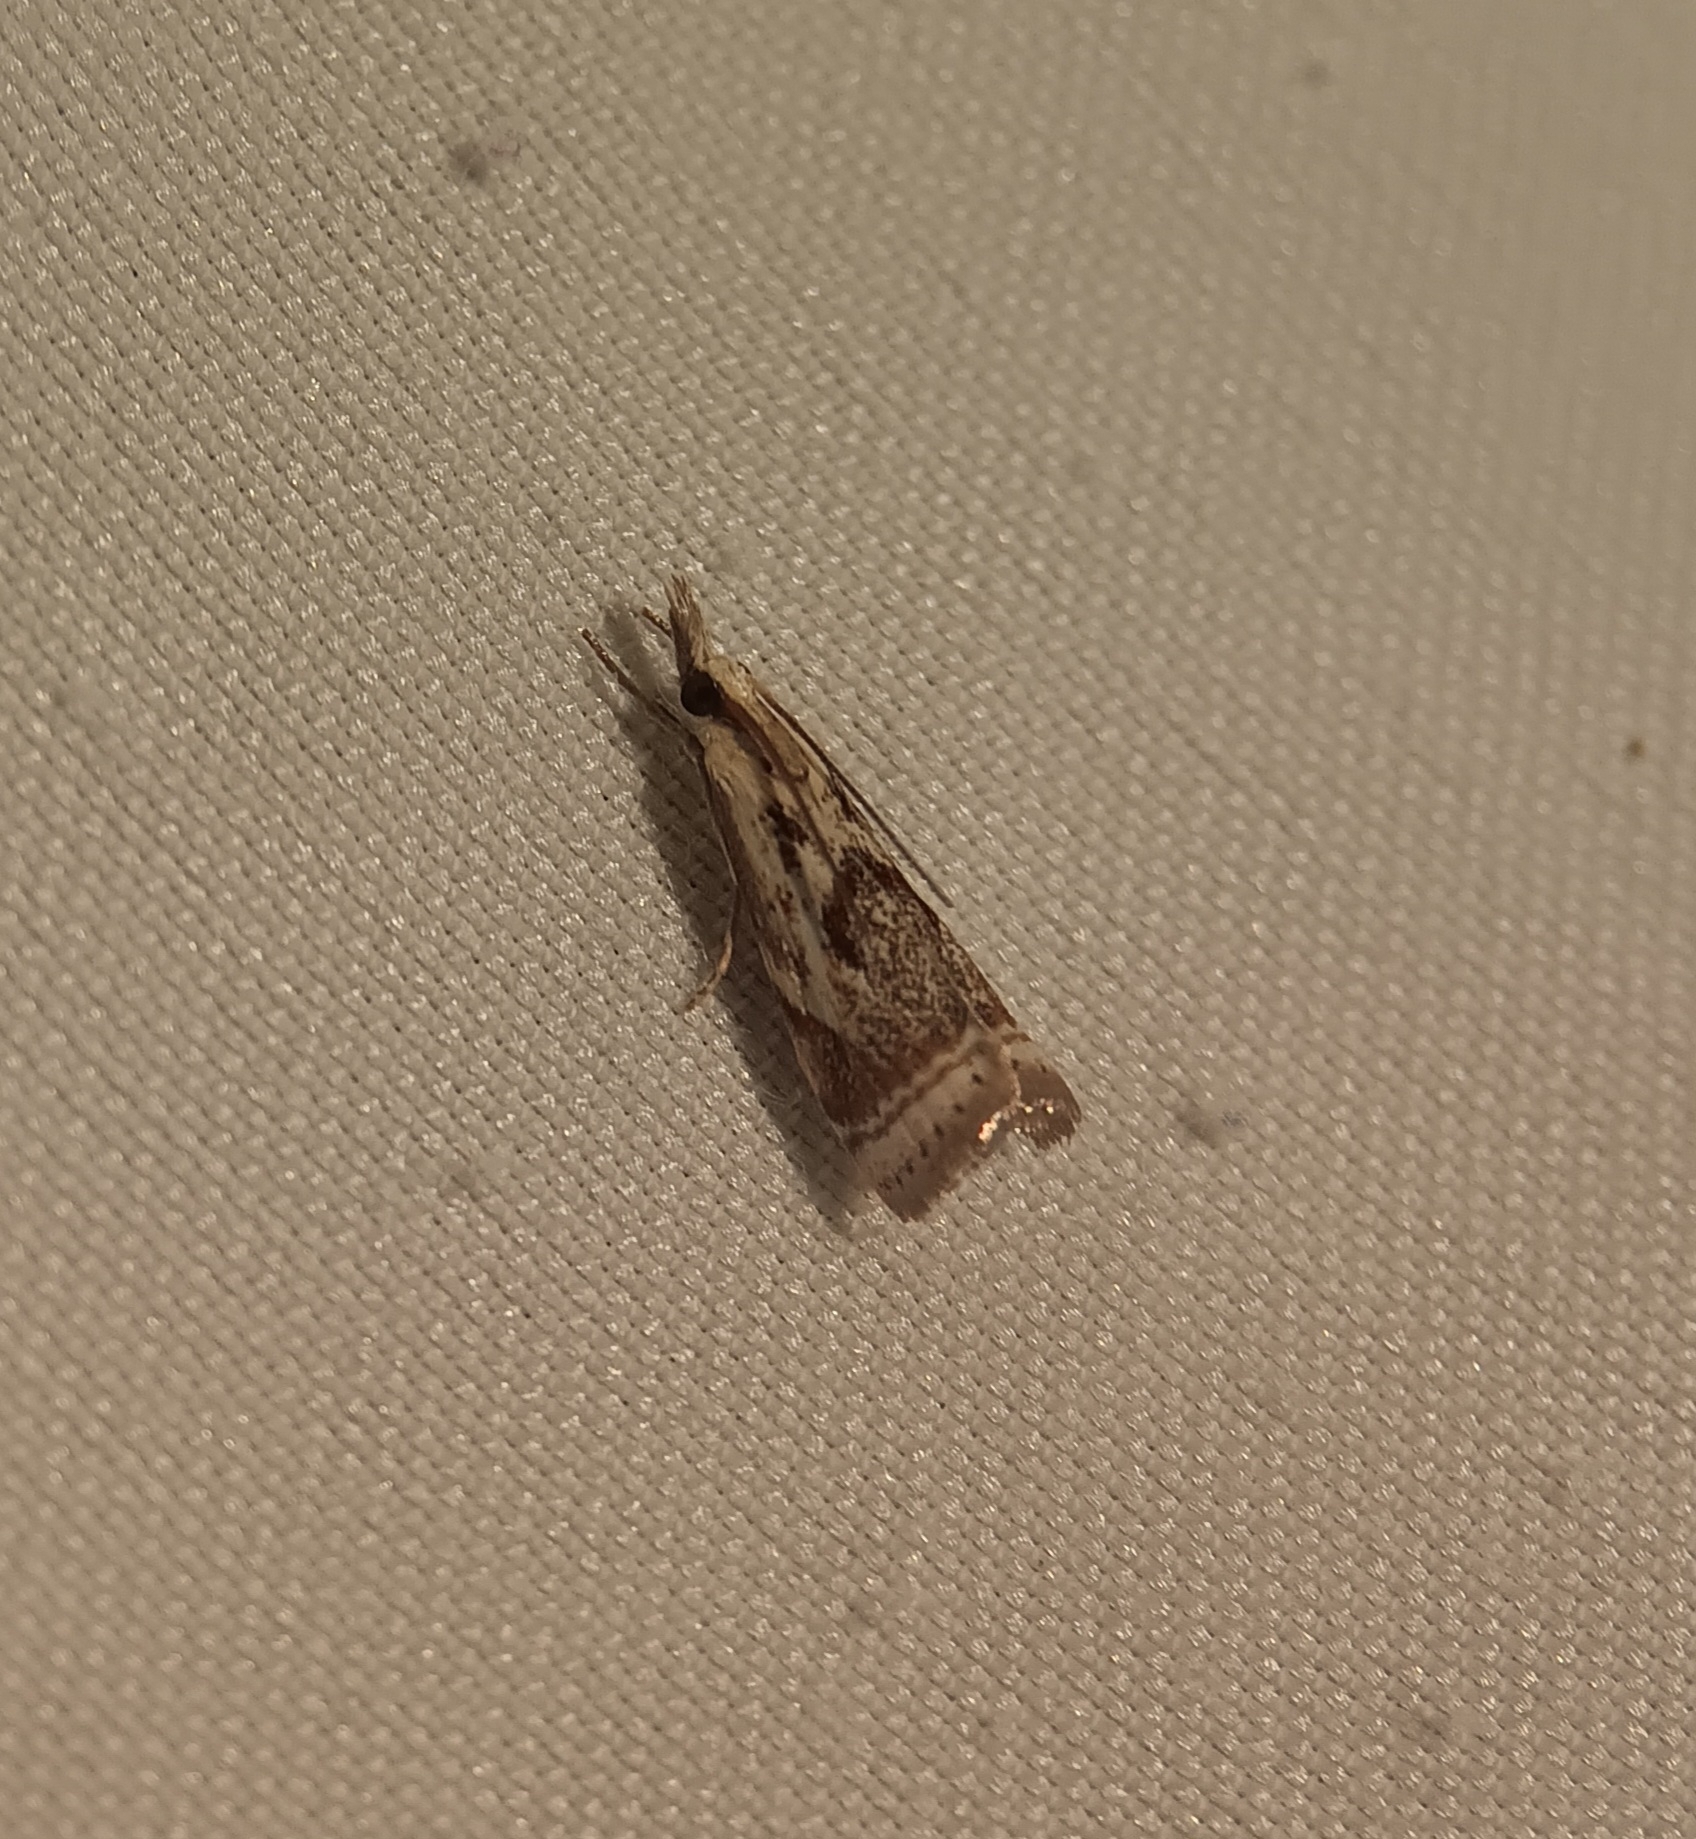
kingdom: Animalia
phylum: Arthropoda
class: Insecta
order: Lepidoptera
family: Crambidae
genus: Microcrambus
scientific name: Microcrambus elegans
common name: Elegant grass-veneer
